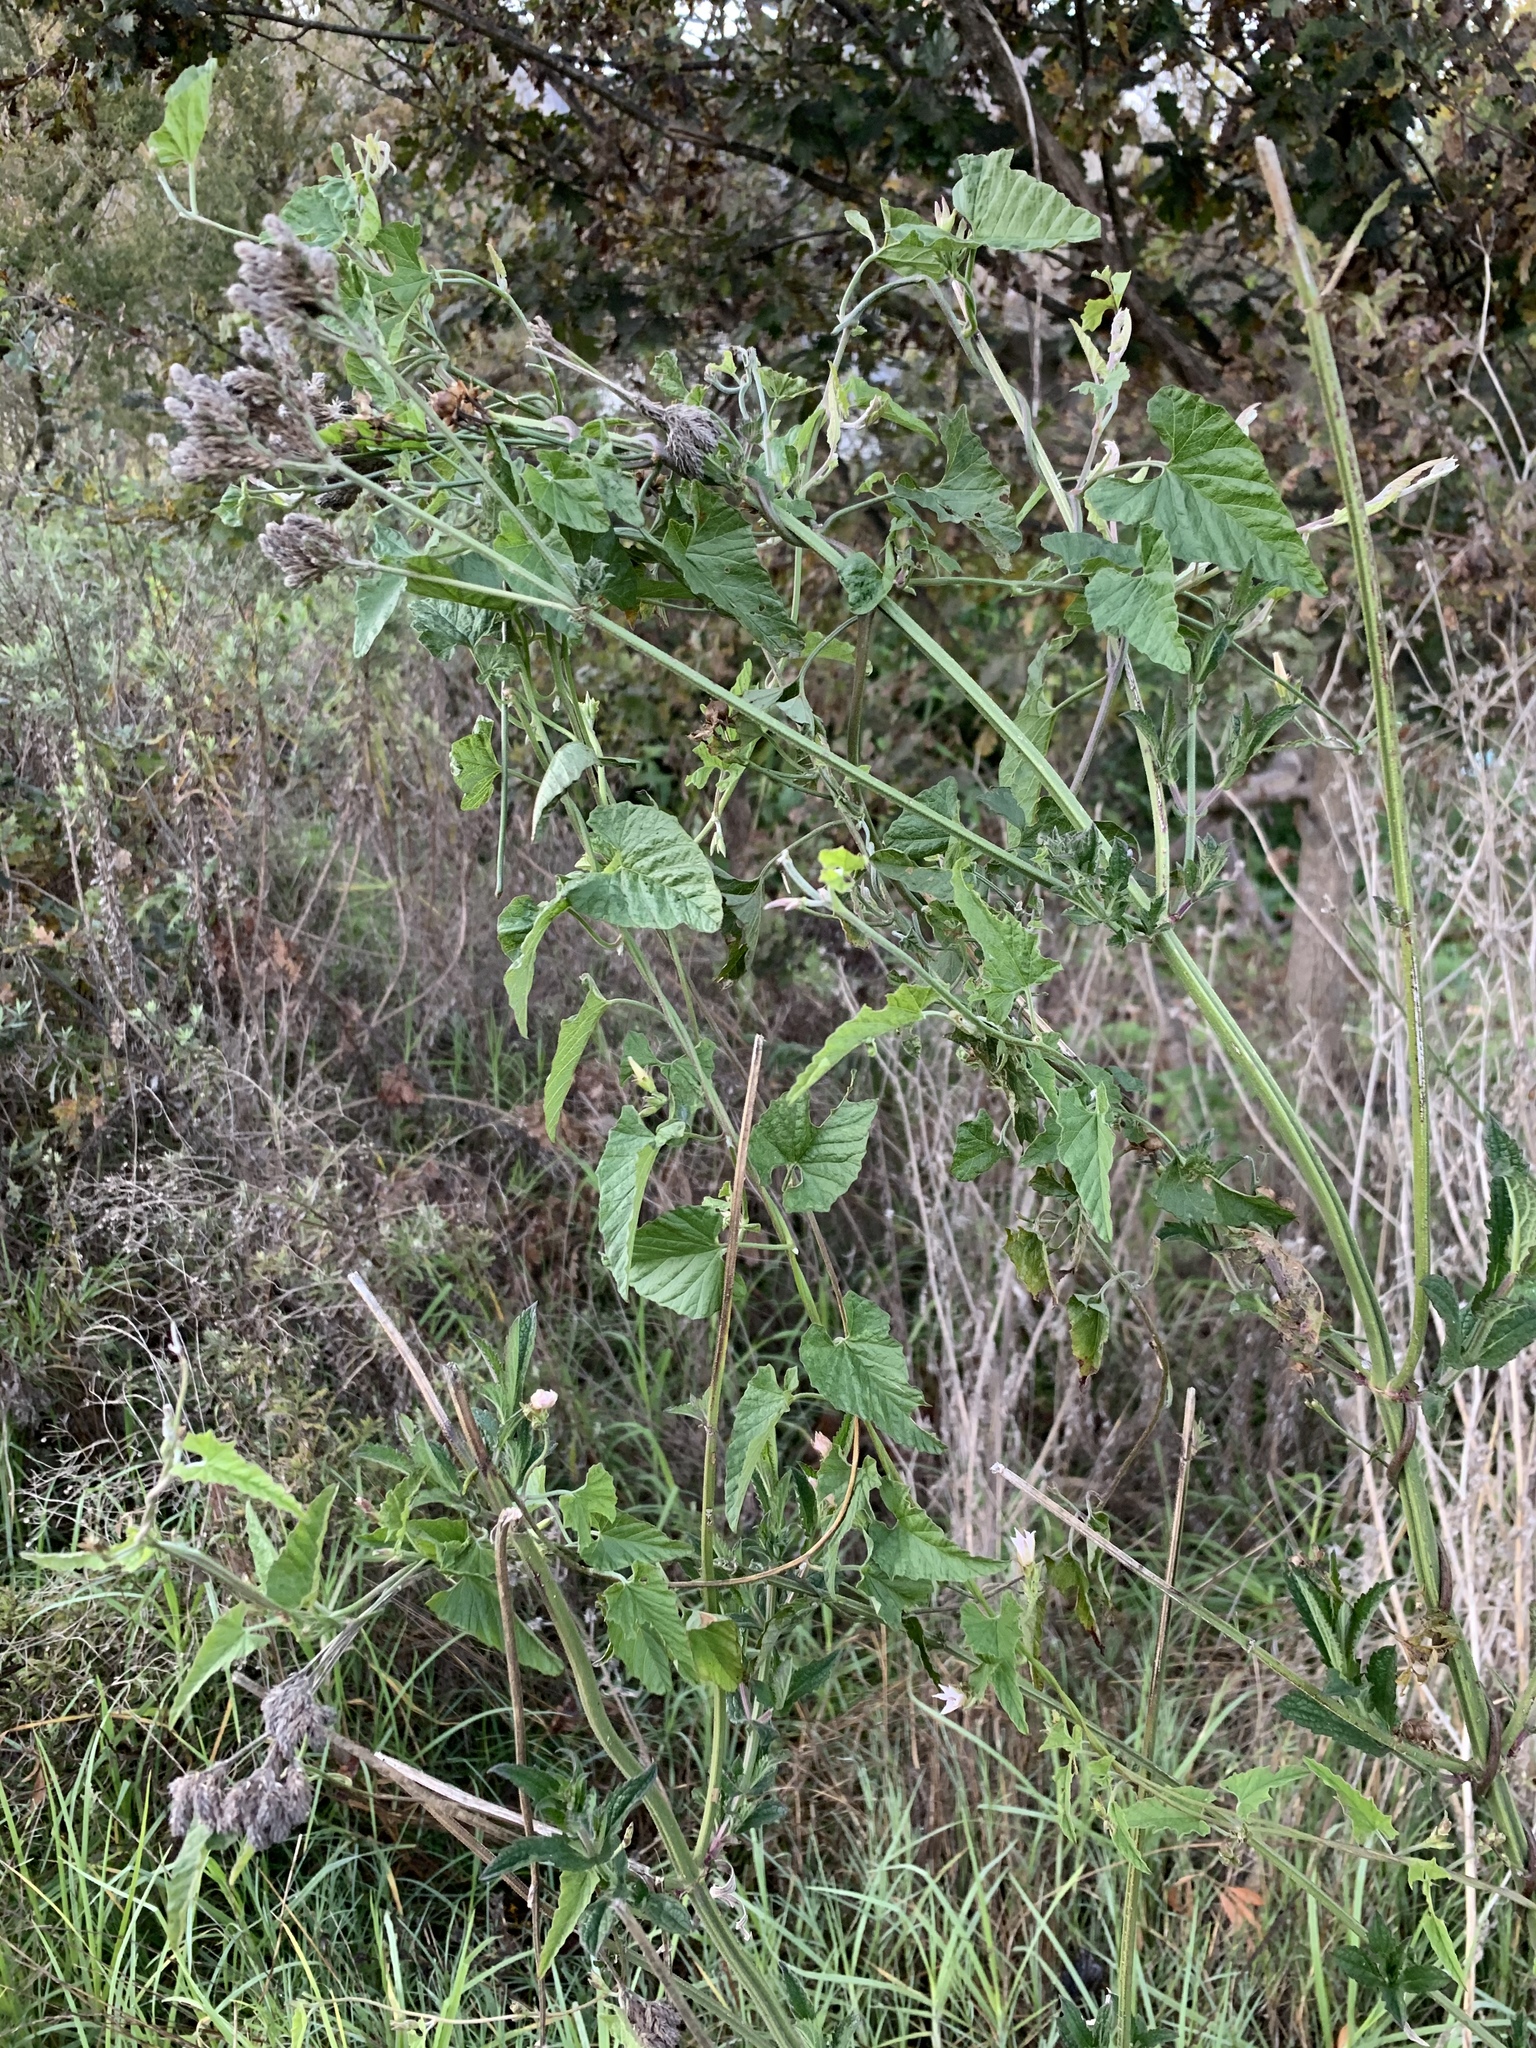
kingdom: Plantae
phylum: Tracheophyta
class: Magnoliopsida
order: Solanales
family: Convolvulaceae
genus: Convolvulus
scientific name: Convolvulus farinosus
